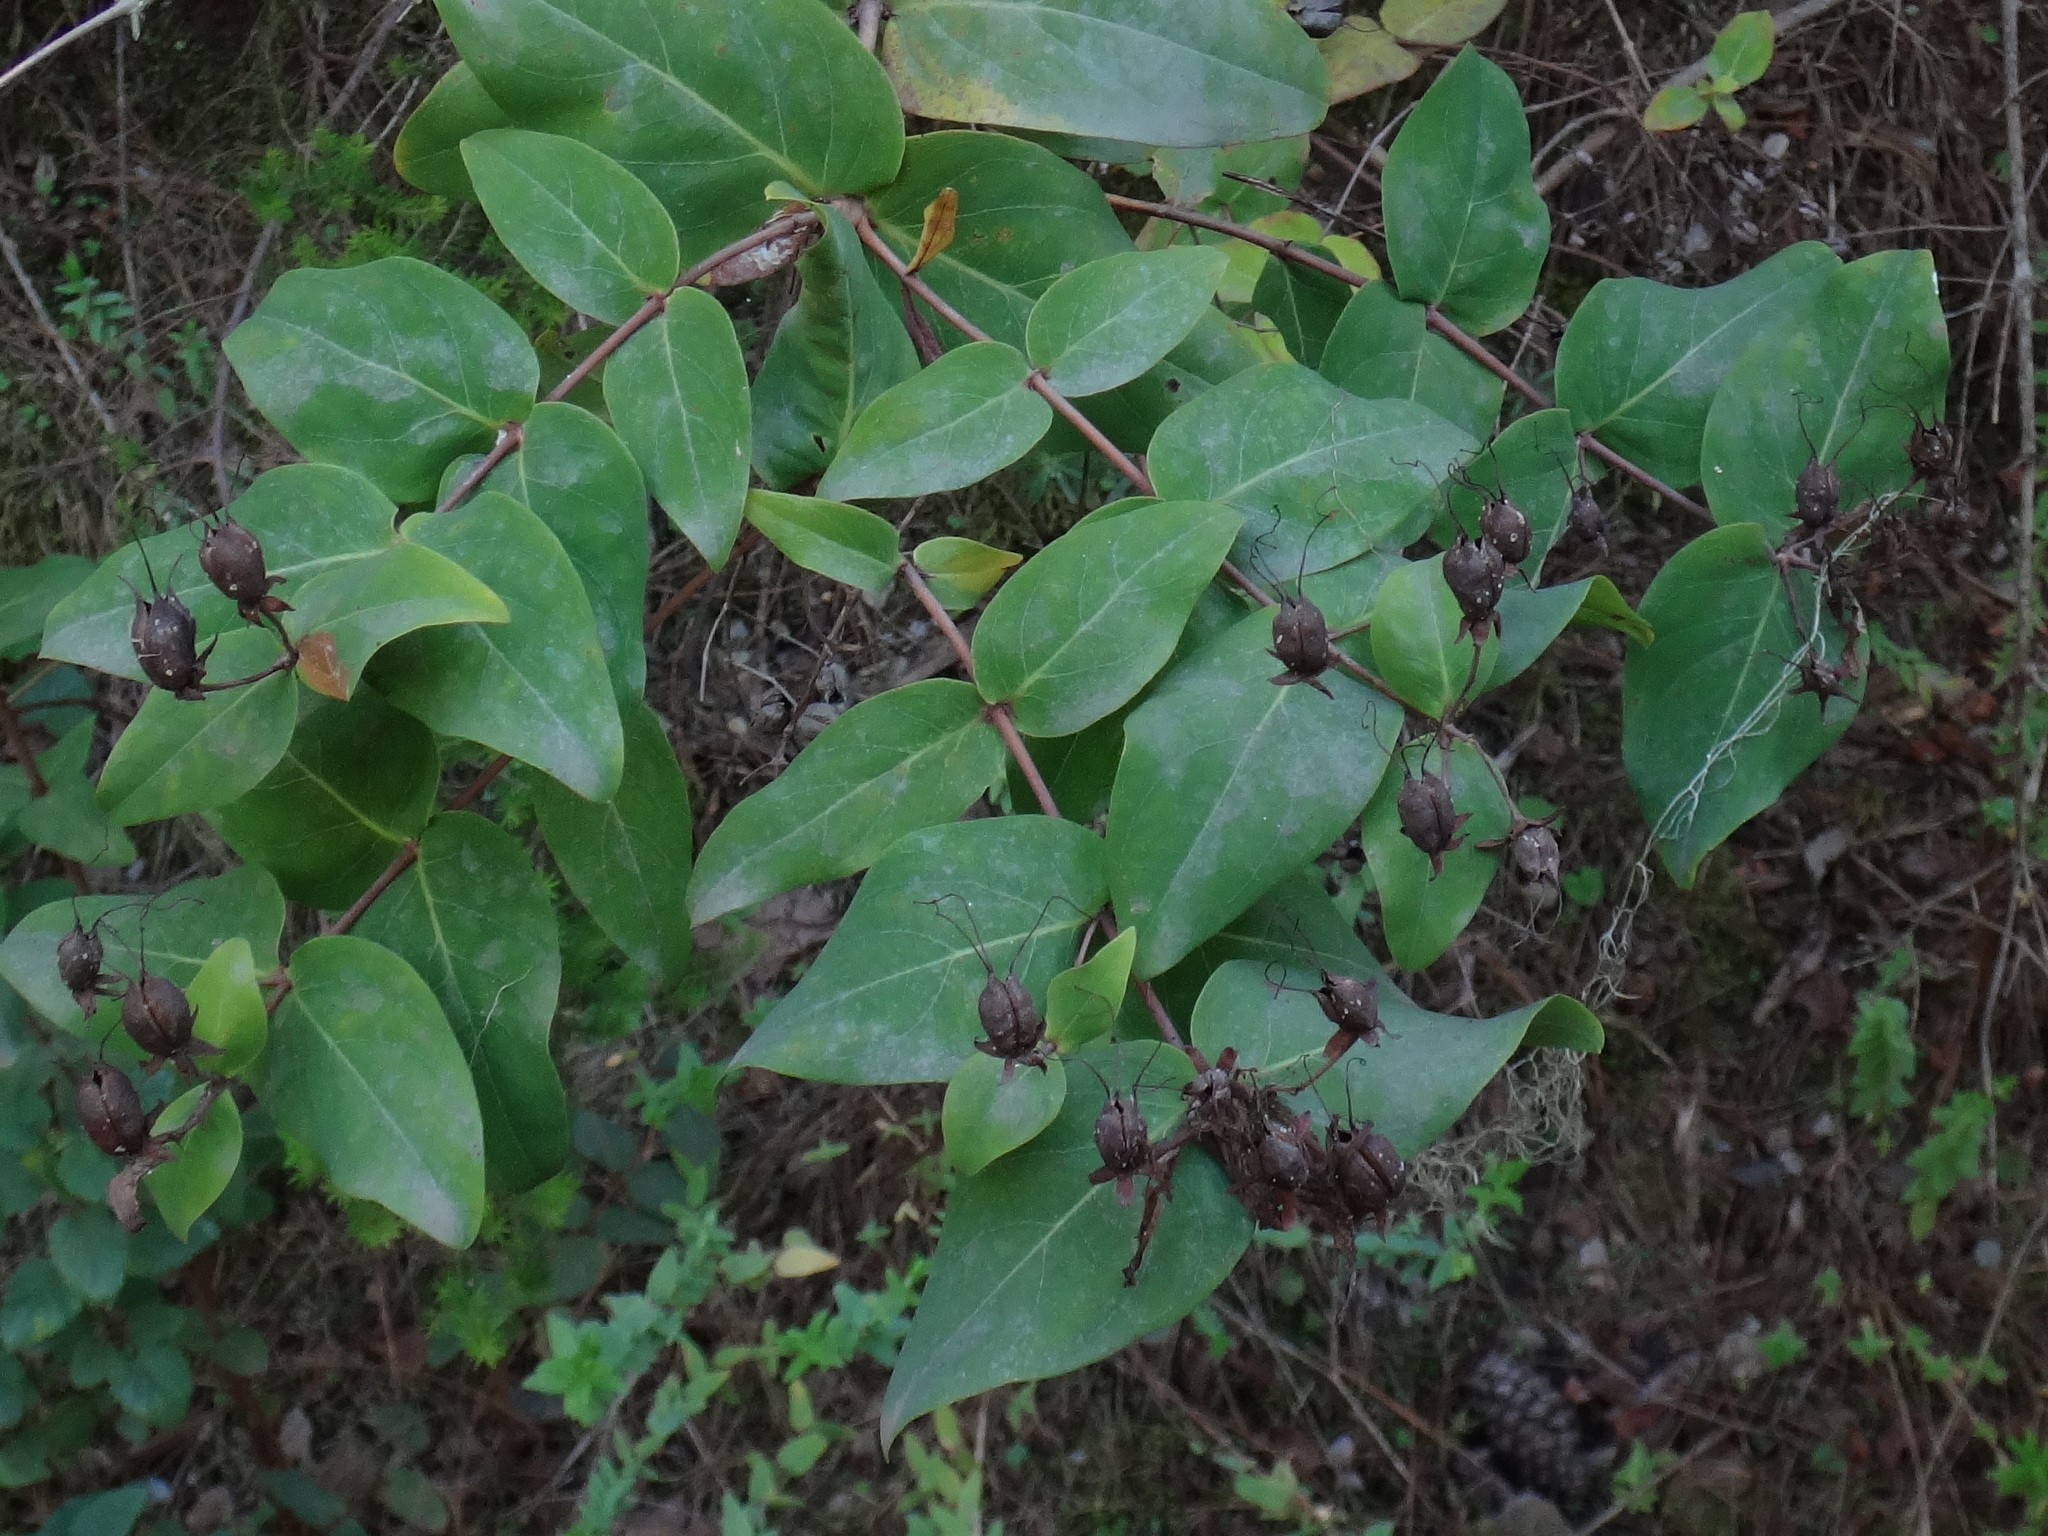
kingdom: Plantae
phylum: Tracheophyta
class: Magnoliopsida
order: Malpighiales
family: Hypericaceae
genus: Hypericum
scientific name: Hypericum grandifolium
